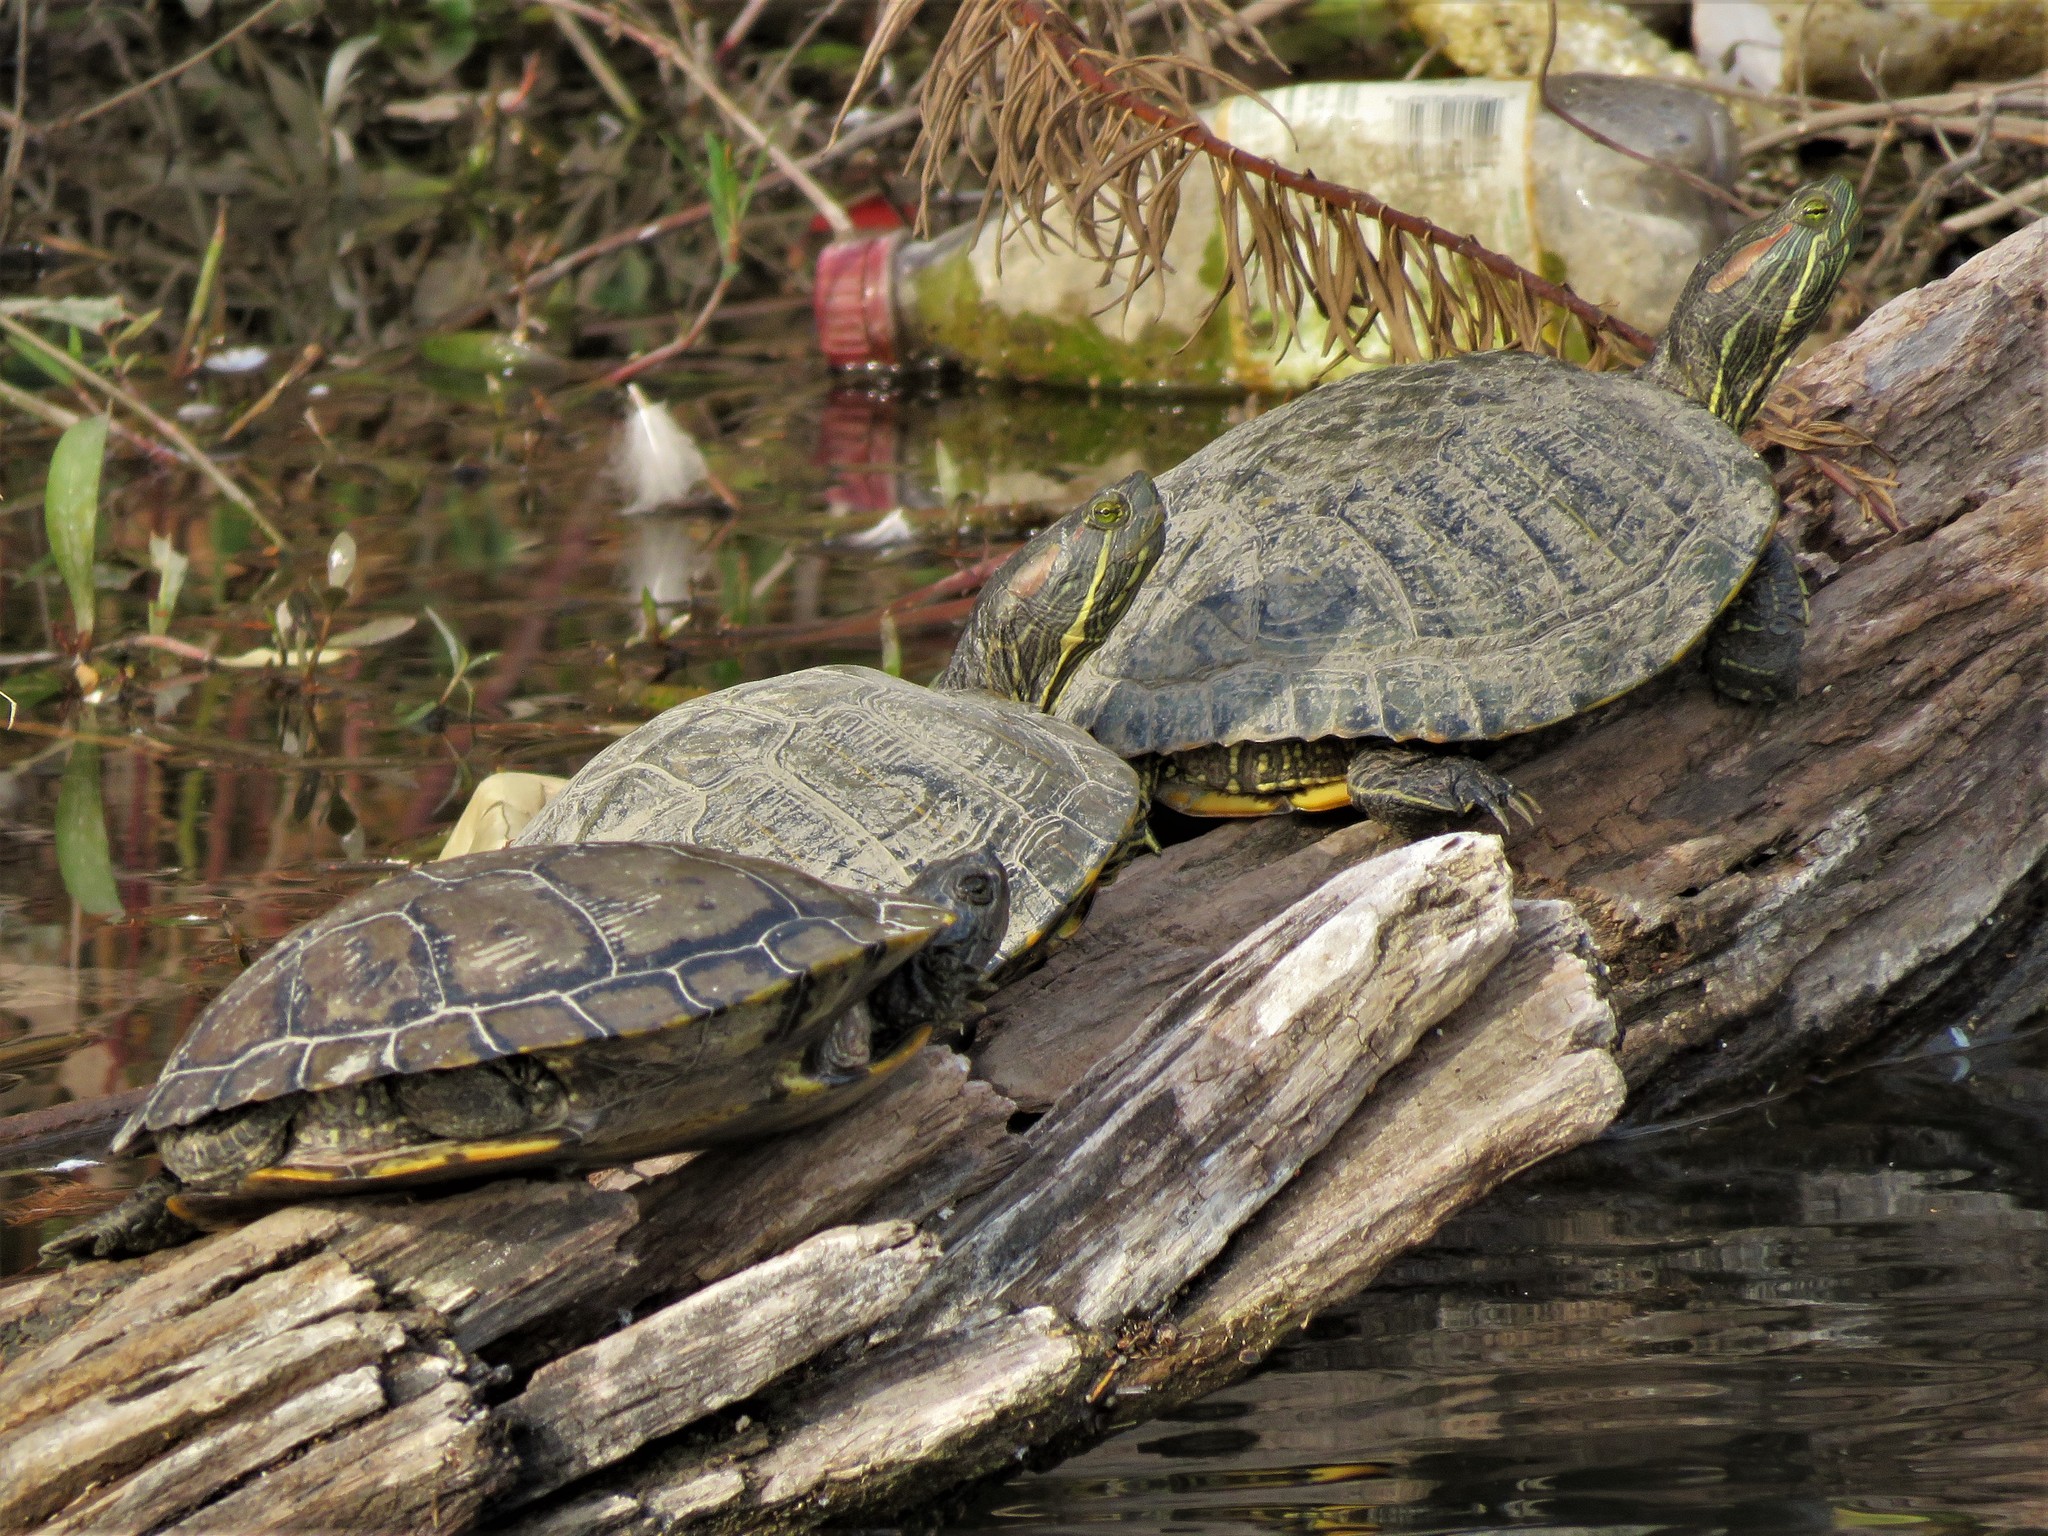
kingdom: Animalia
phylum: Chordata
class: Testudines
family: Emydidae
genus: Trachemys
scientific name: Trachemys scripta
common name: Slider
